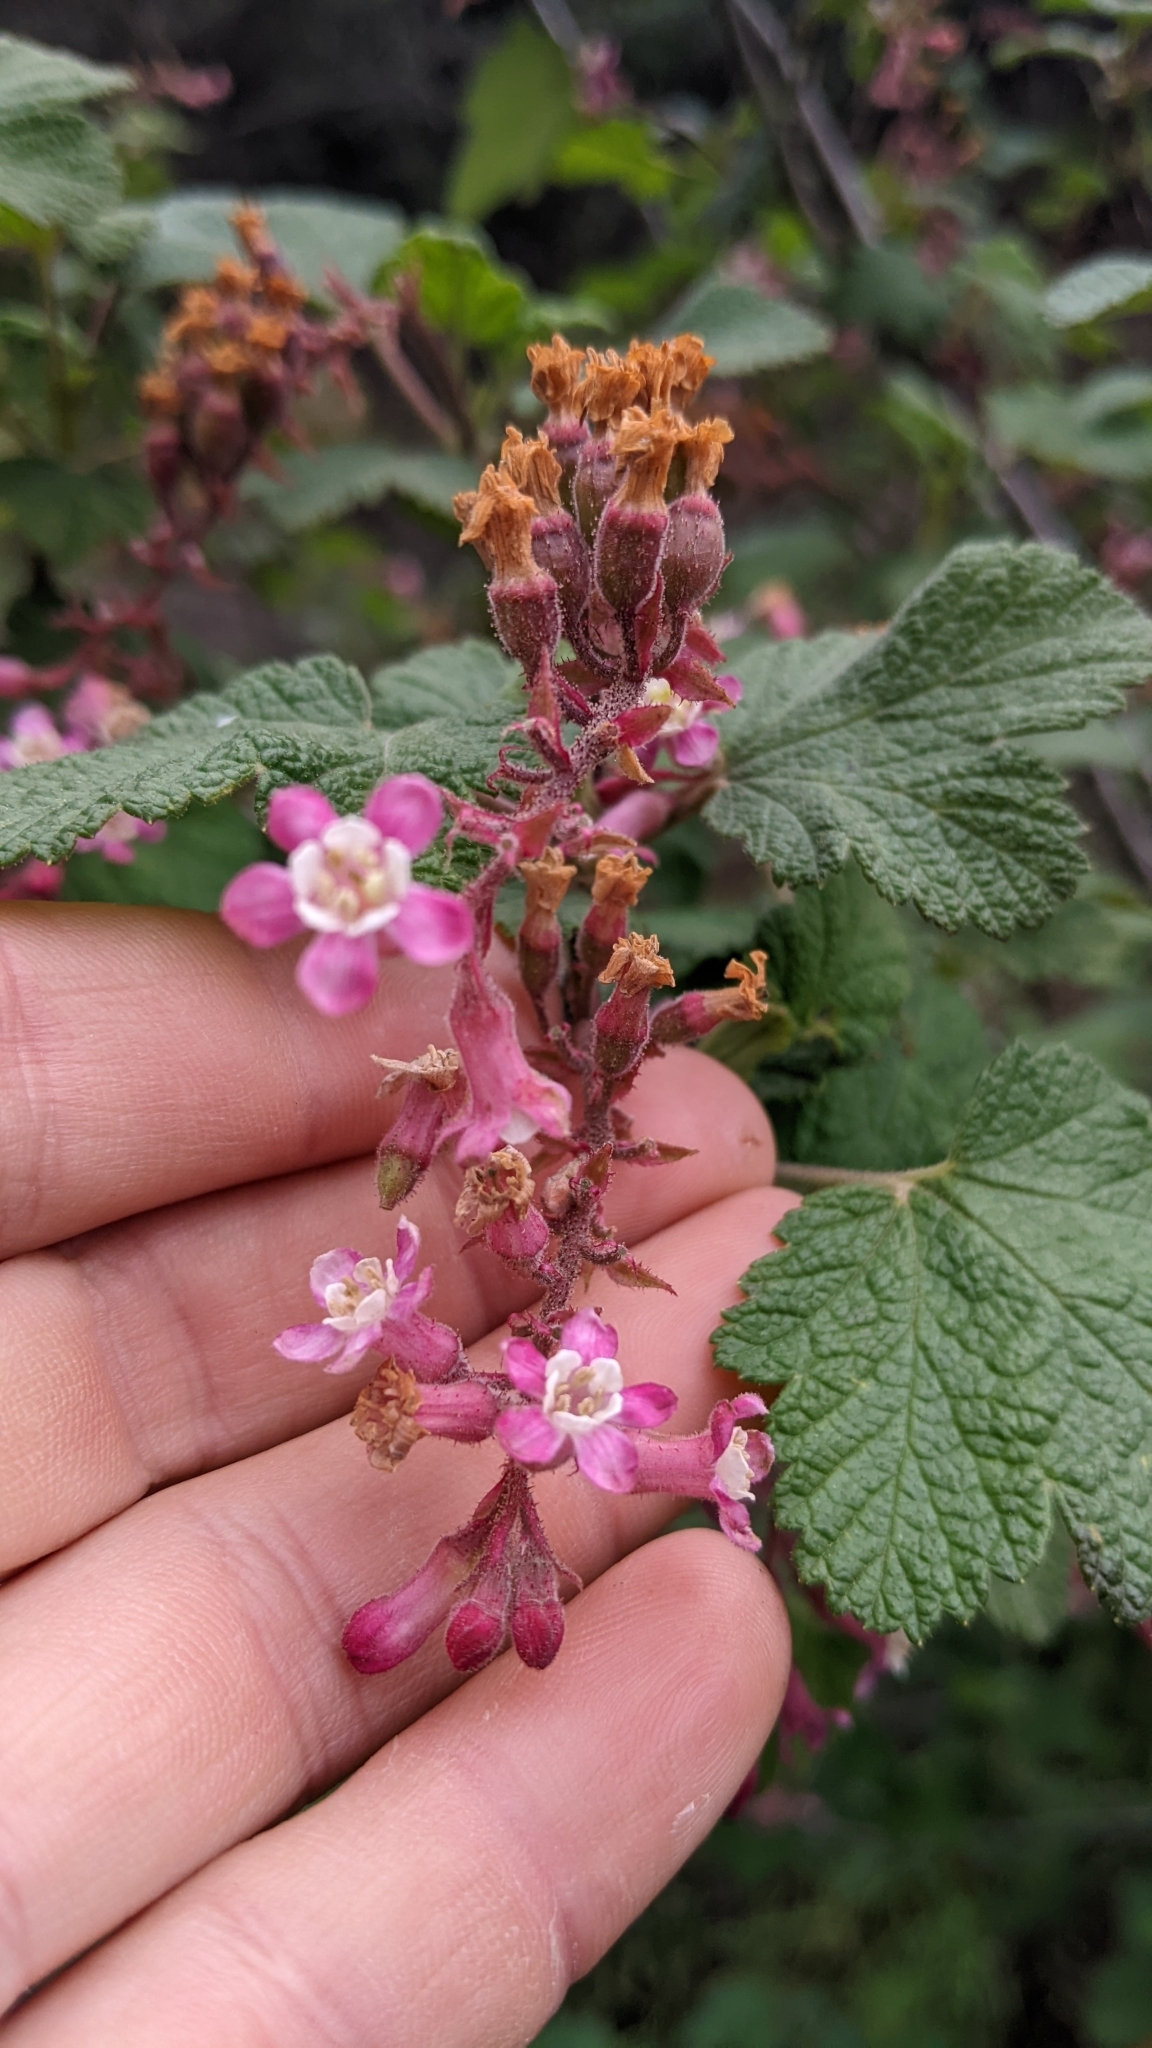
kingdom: Plantae
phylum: Tracheophyta
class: Magnoliopsida
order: Saxifragales
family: Grossulariaceae
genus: Ribes
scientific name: Ribes malvaceum
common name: Chaparral currant
